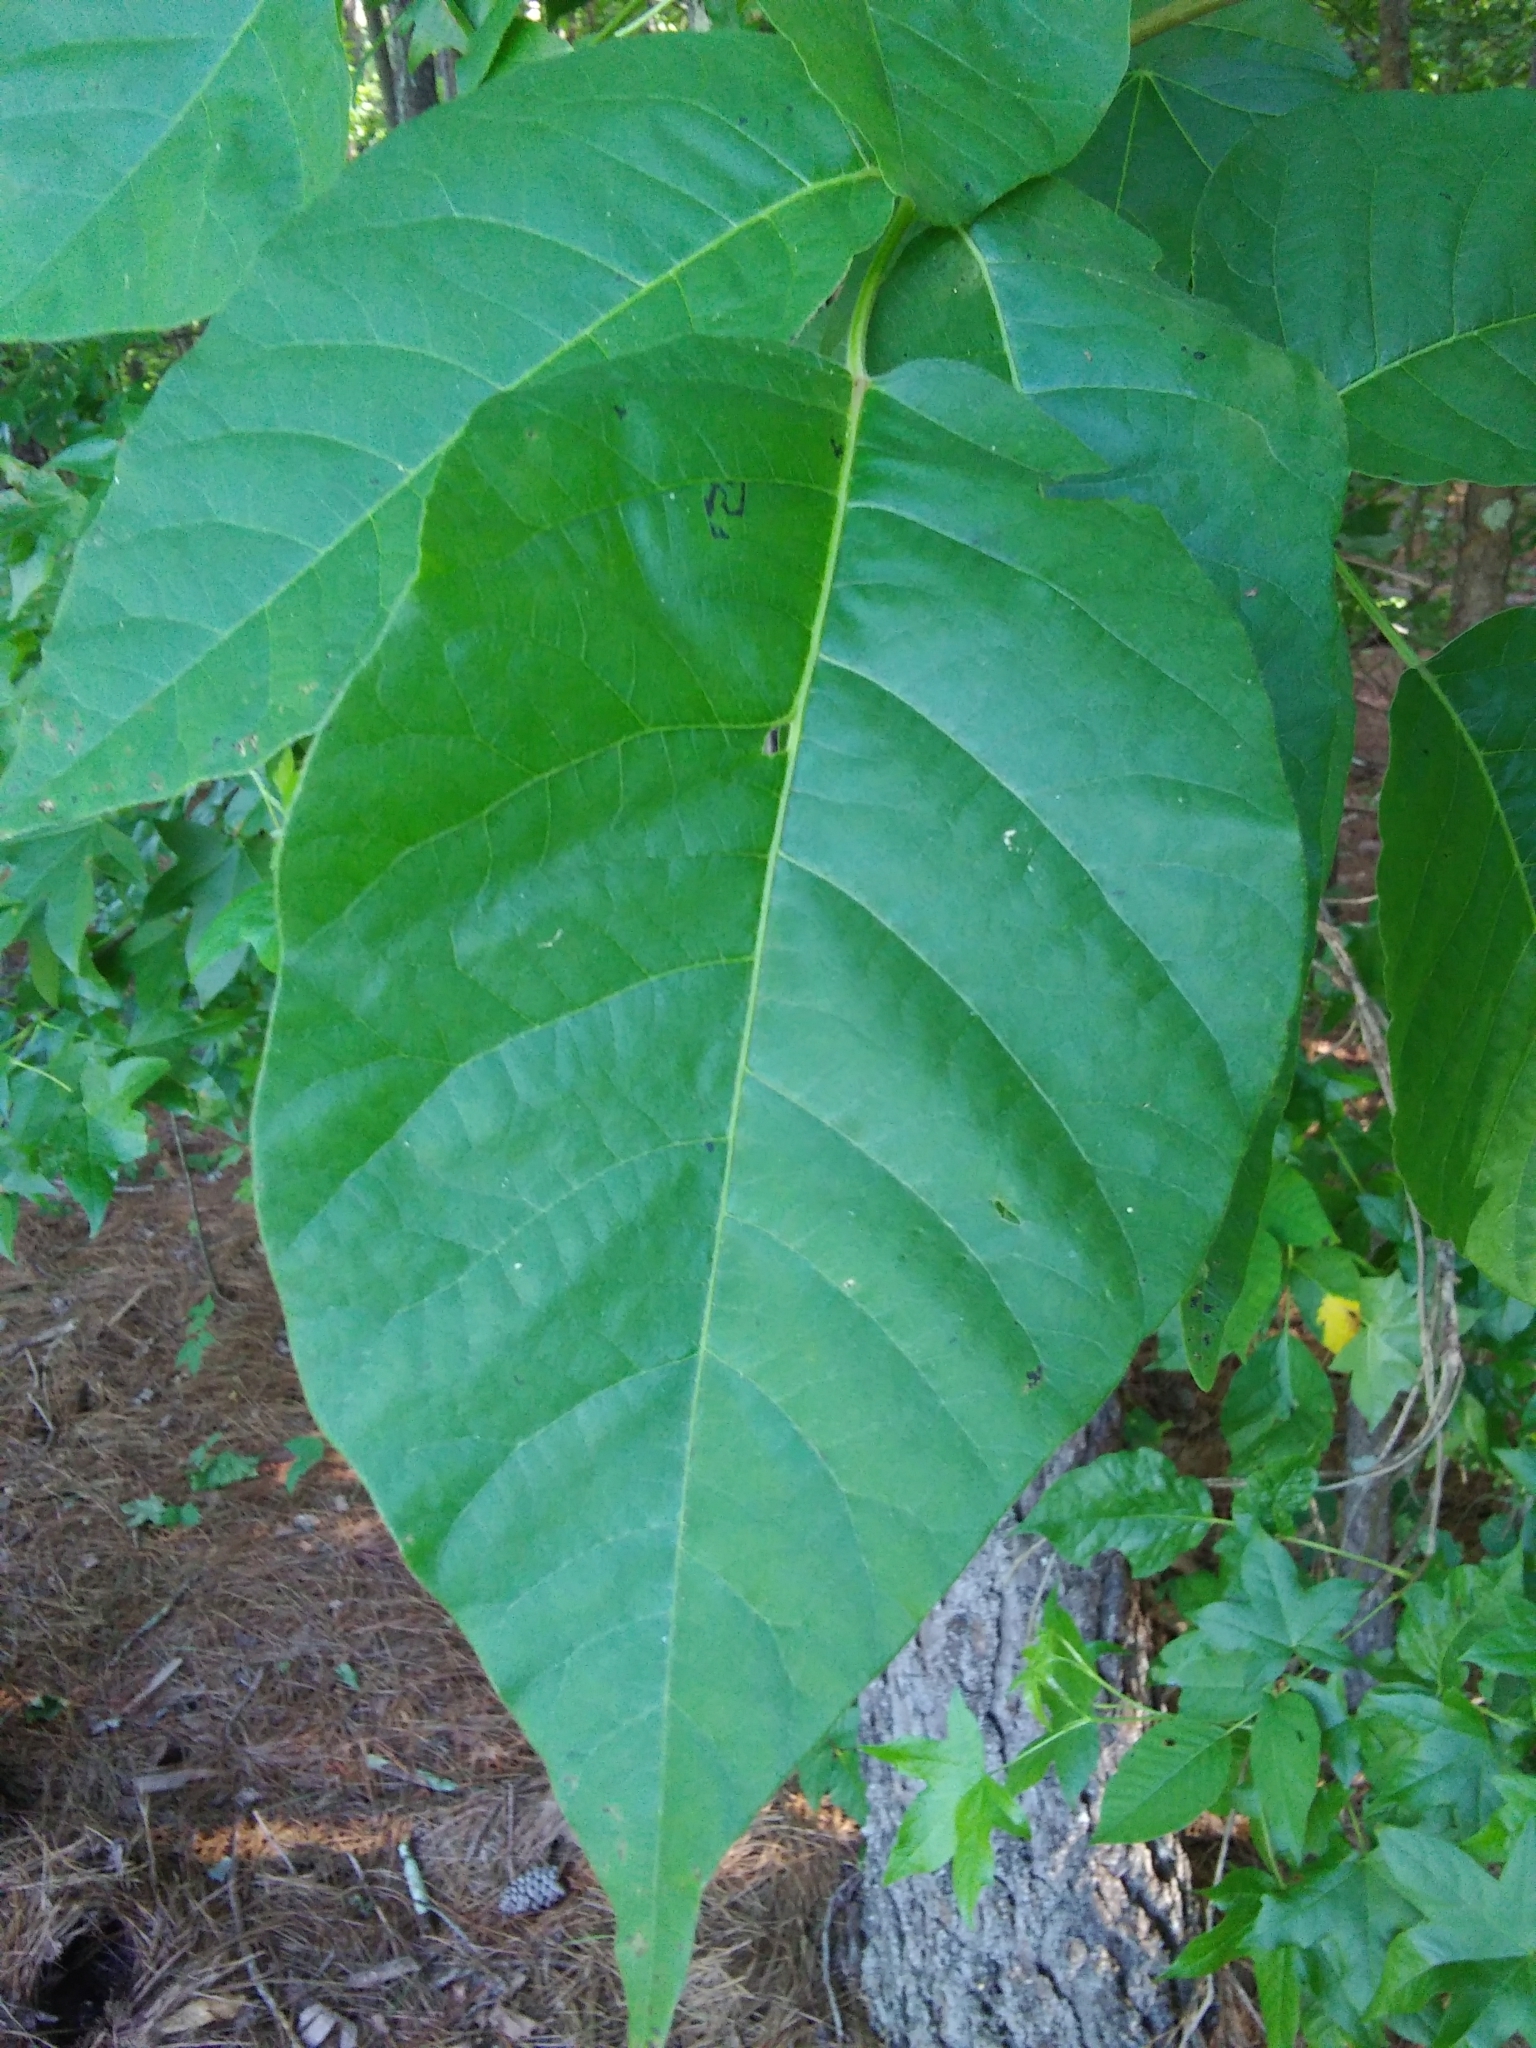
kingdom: Plantae
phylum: Tracheophyta
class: Magnoliopsida
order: Sapindales
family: Anacardiaceae
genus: Toxicodendron
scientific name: Toxicodendron radicans
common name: Poison ivy
